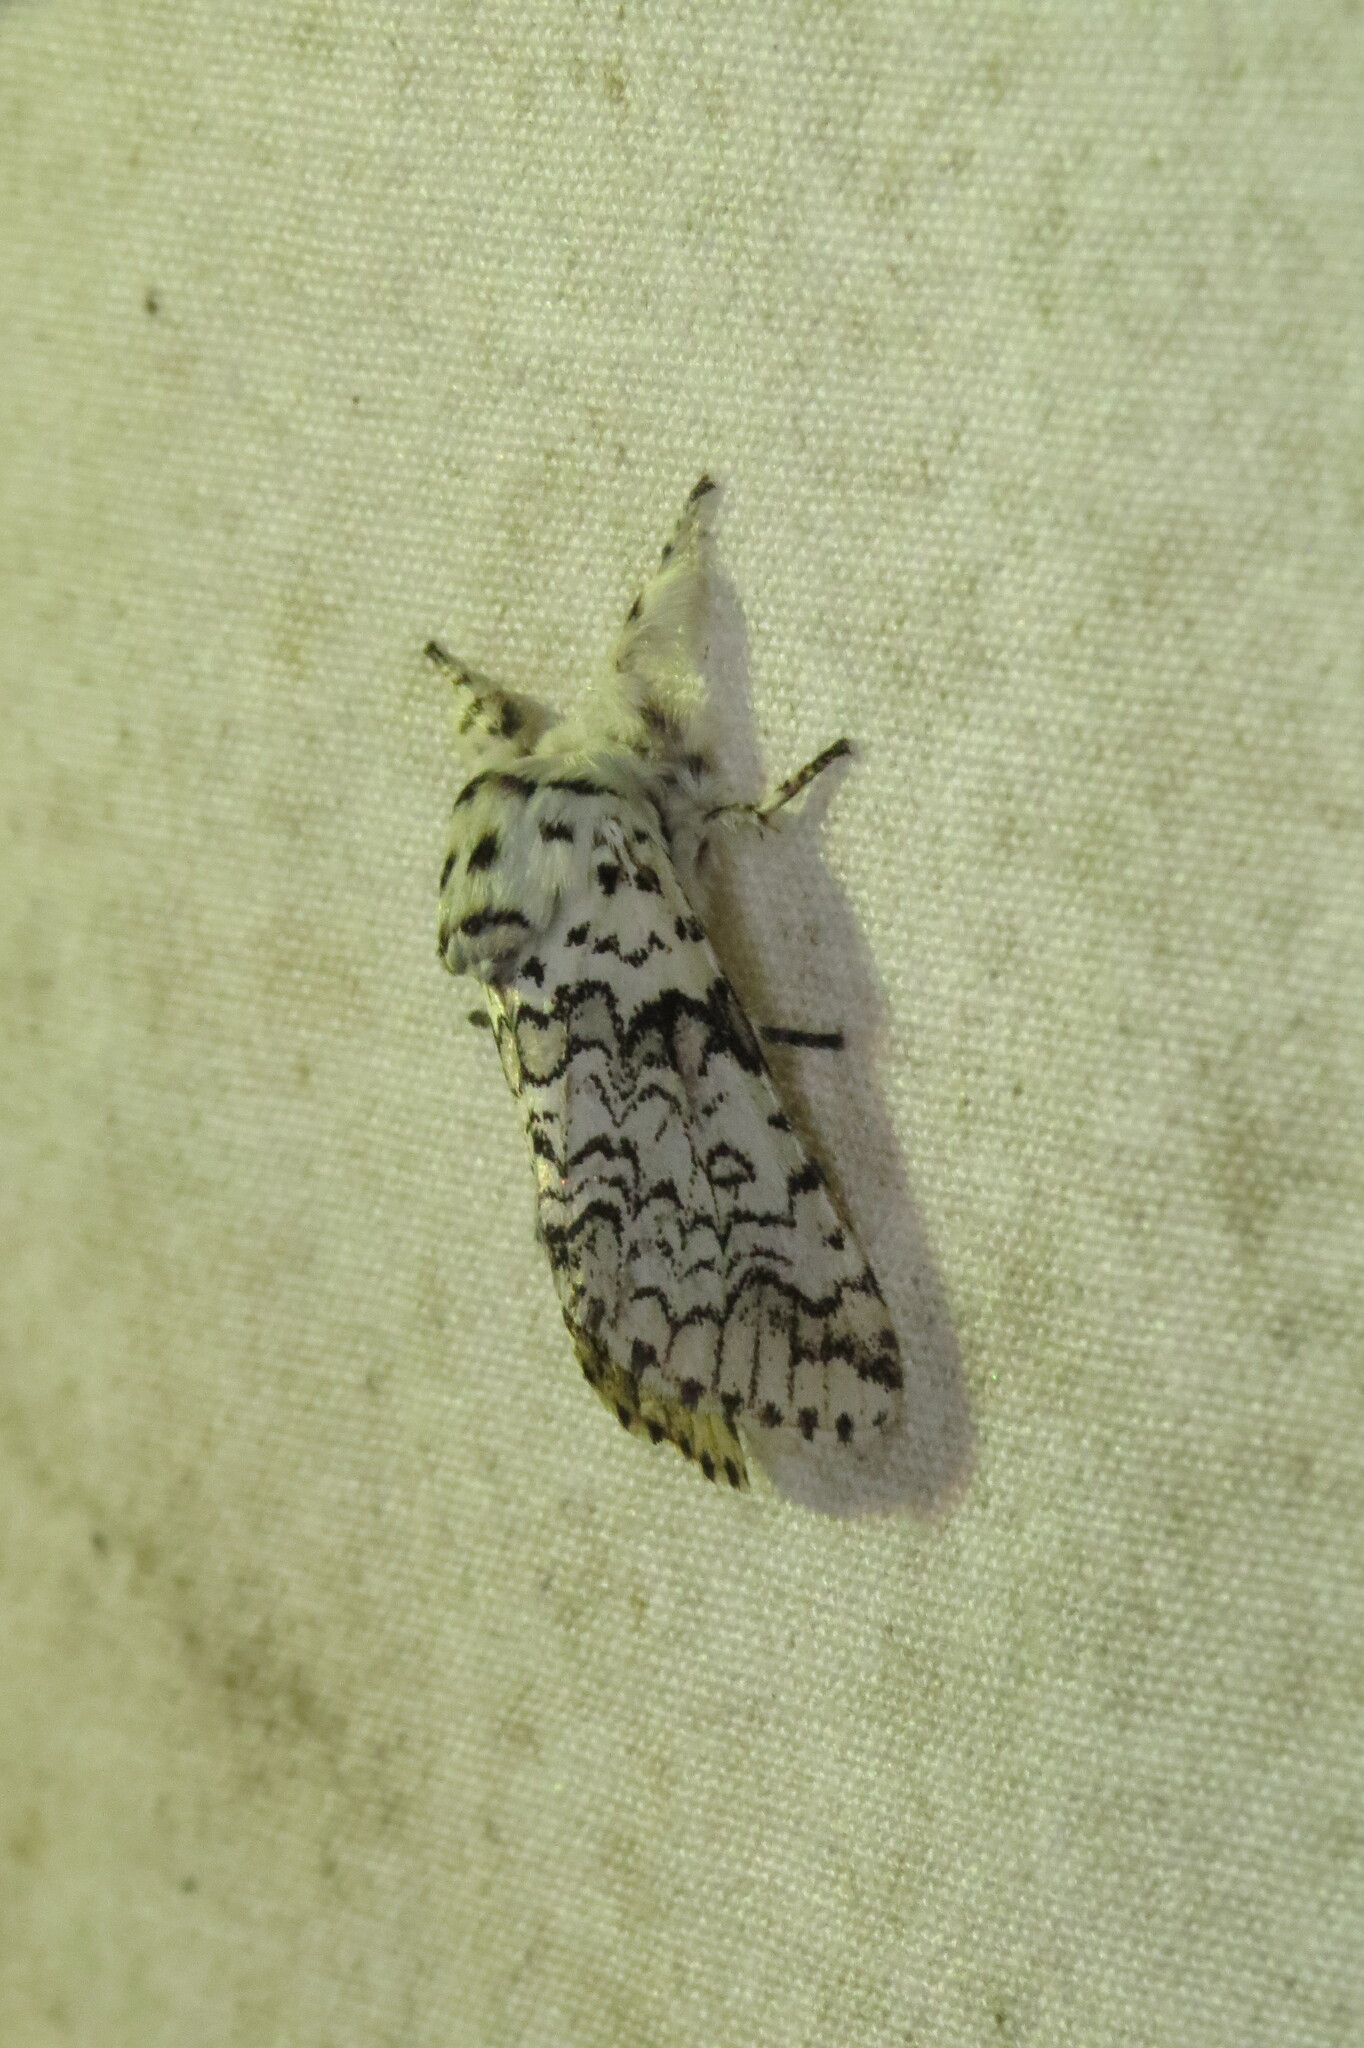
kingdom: Animalia
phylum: Arthropoda
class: Insecta
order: Lepidoptera
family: Notodontidae
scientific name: Notodontidae
